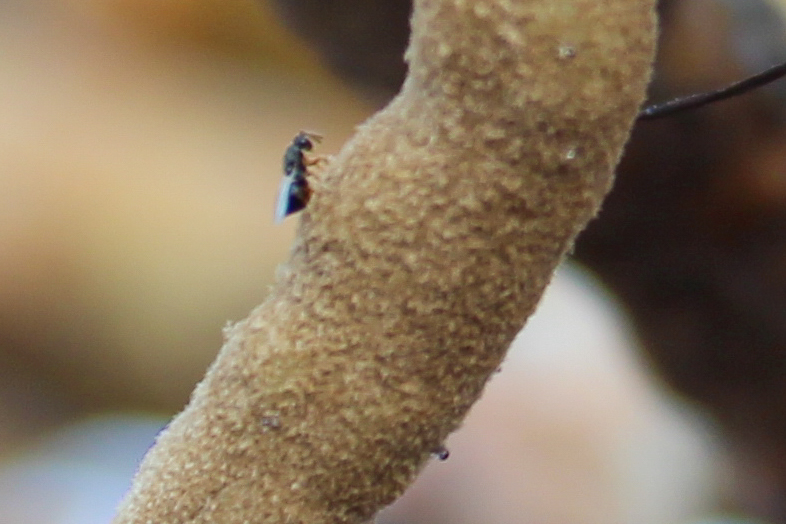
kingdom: Animalia
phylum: Arthropoda
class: Insecta
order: Hymenoptera
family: Eurytomidae
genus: Eurytoma
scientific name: Eurytoma
